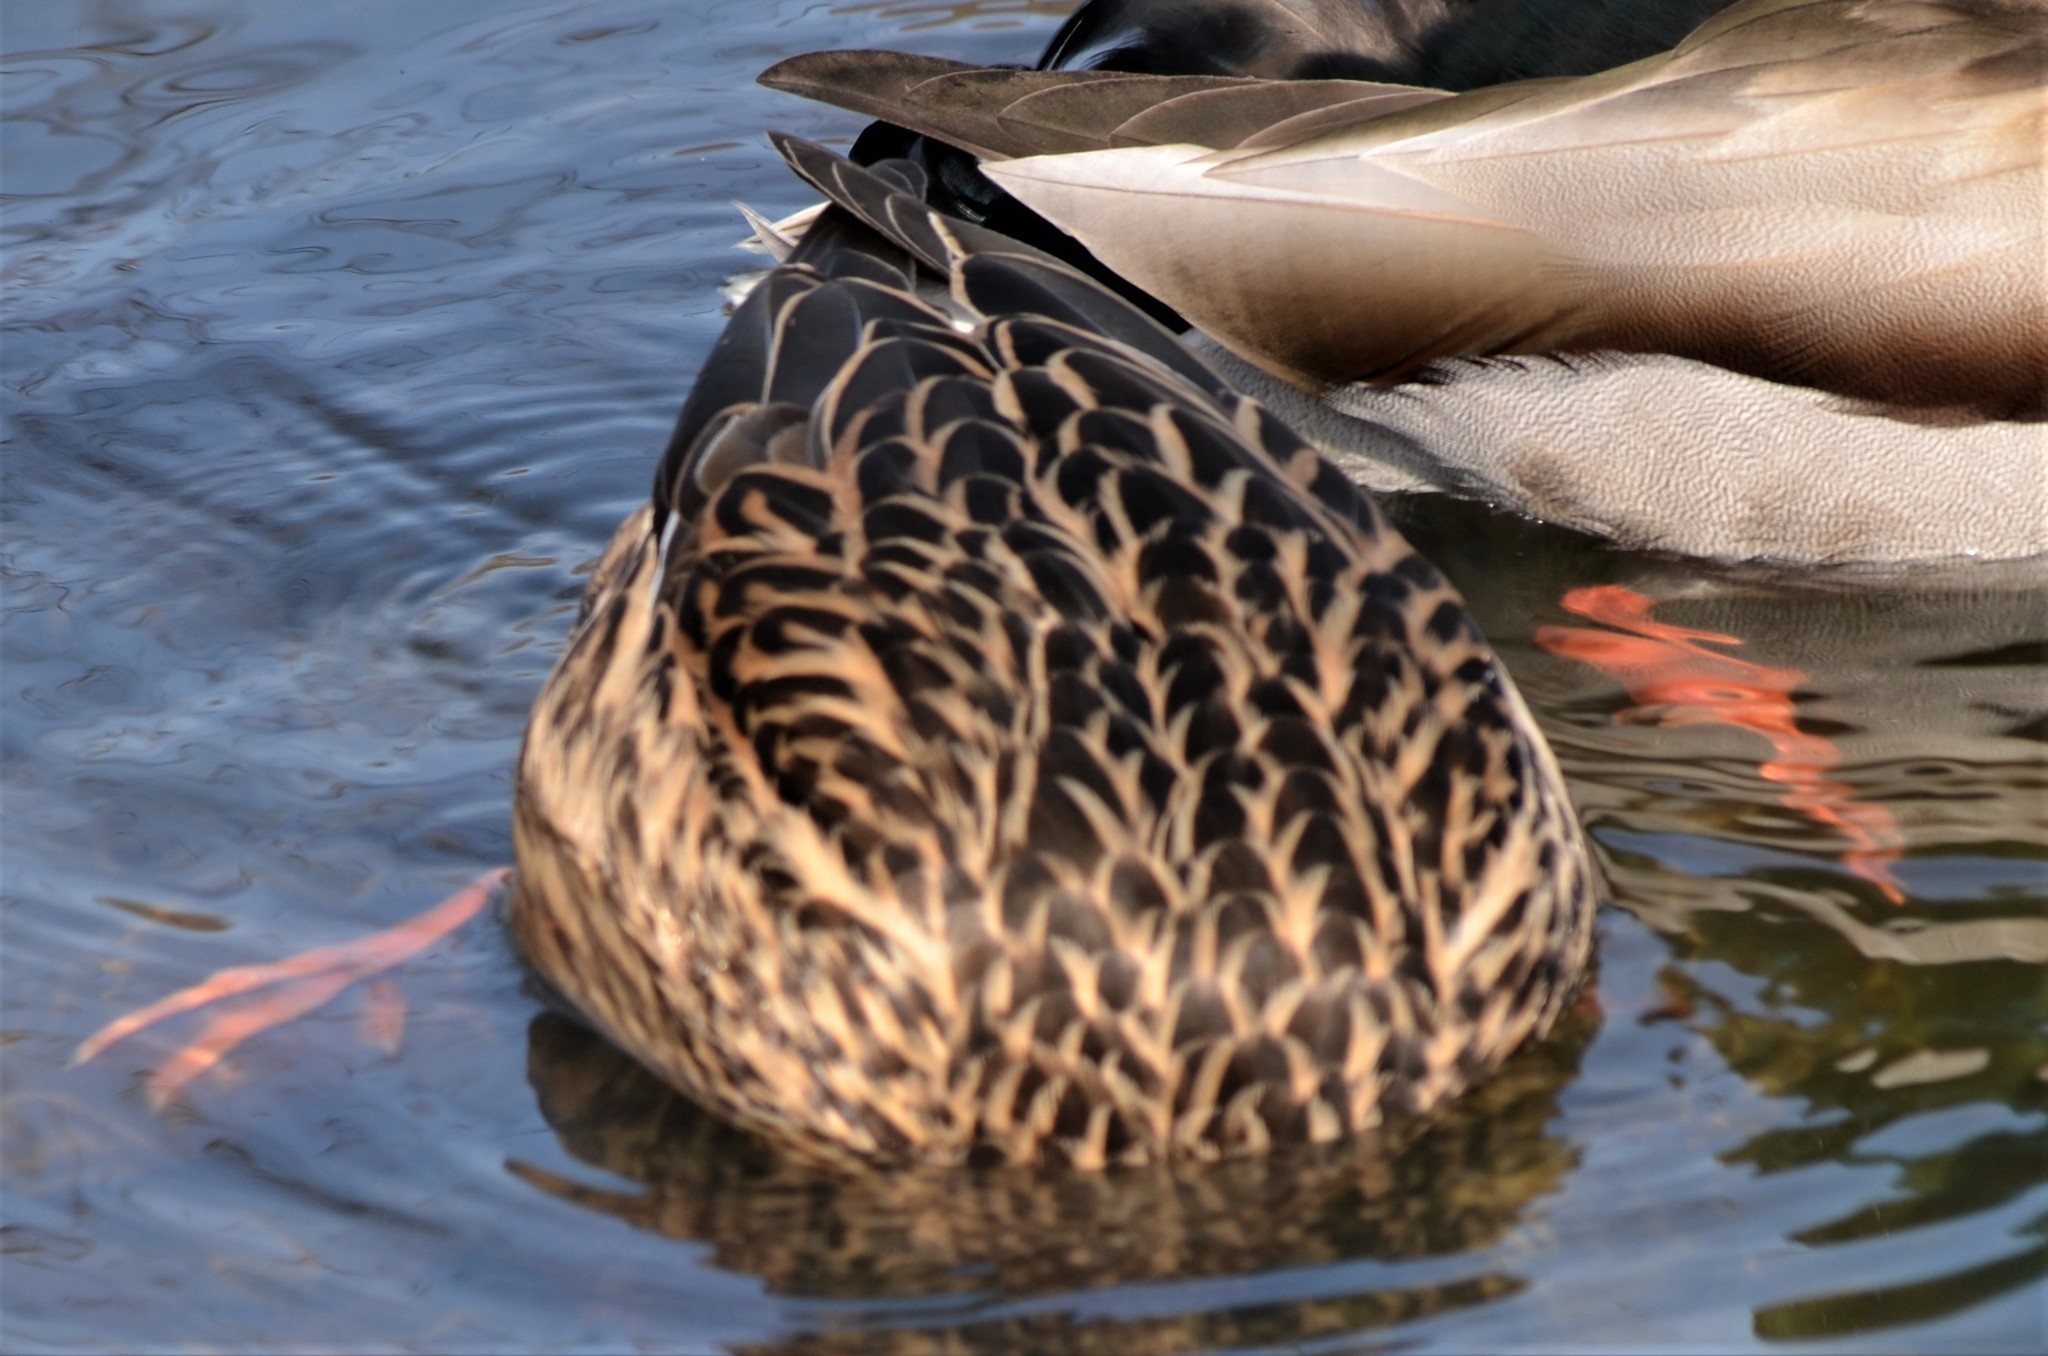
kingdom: Animalia
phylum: Chordata
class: Aves
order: Anseriformes
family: Anatidae
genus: Anas
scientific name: Anas platyrhynchos
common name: Mallard
